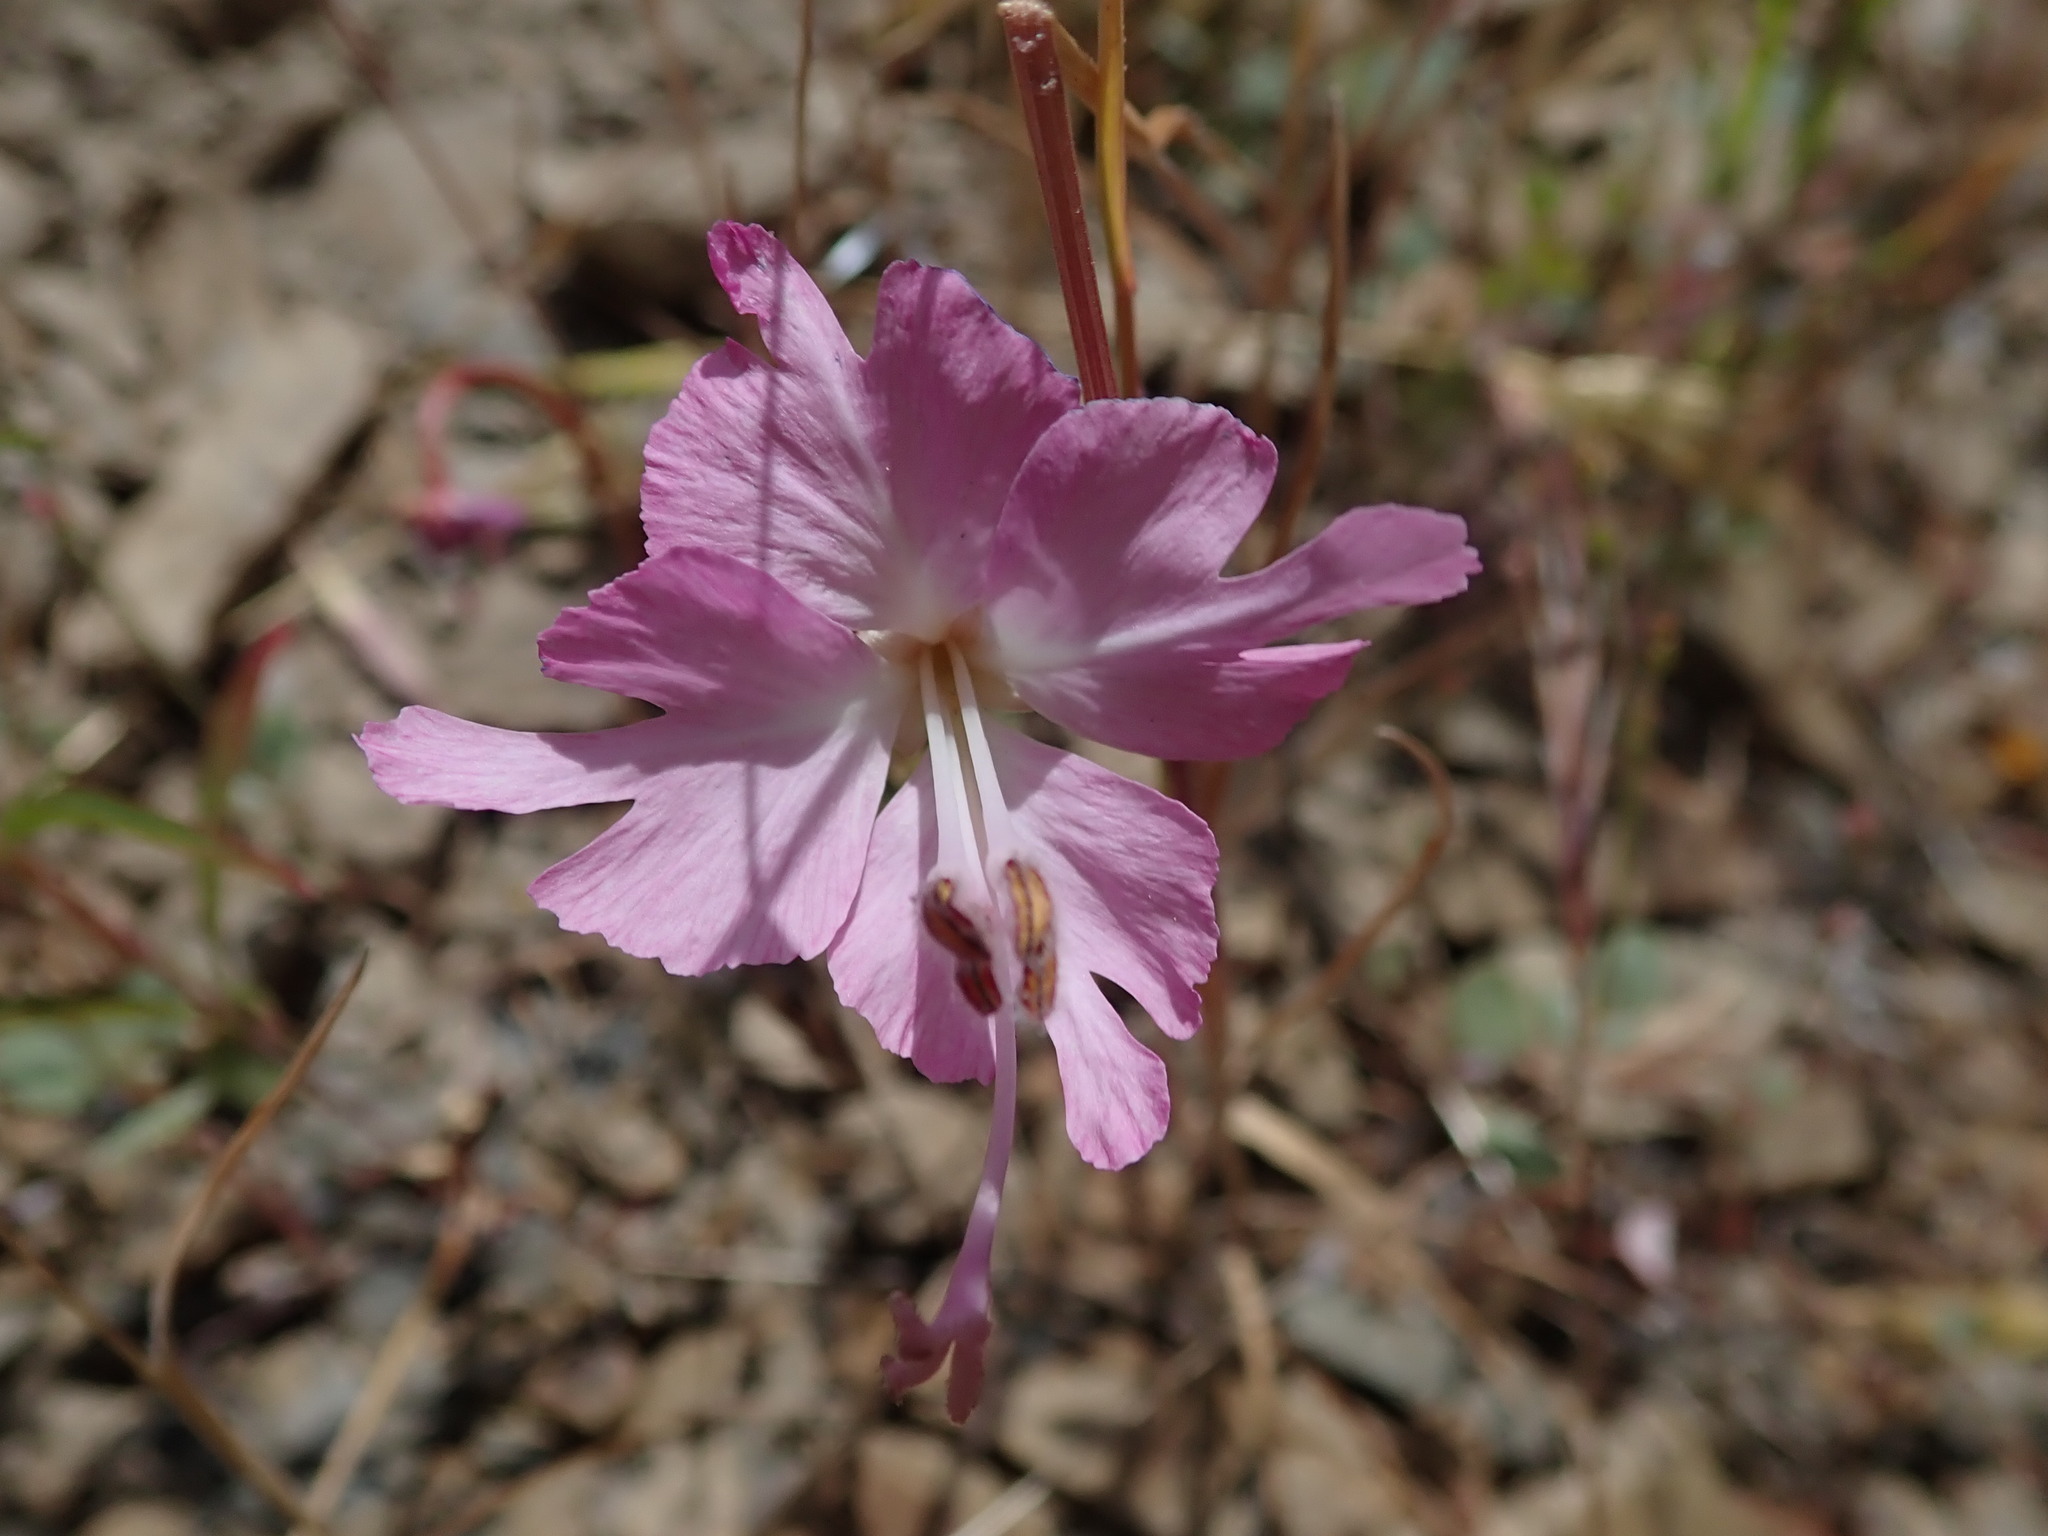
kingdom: Plantae
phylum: Tracheophyta
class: Magnoliopsida
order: Myrtales
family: Onagraceae
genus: Clarkia
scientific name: Clarkia breweri
